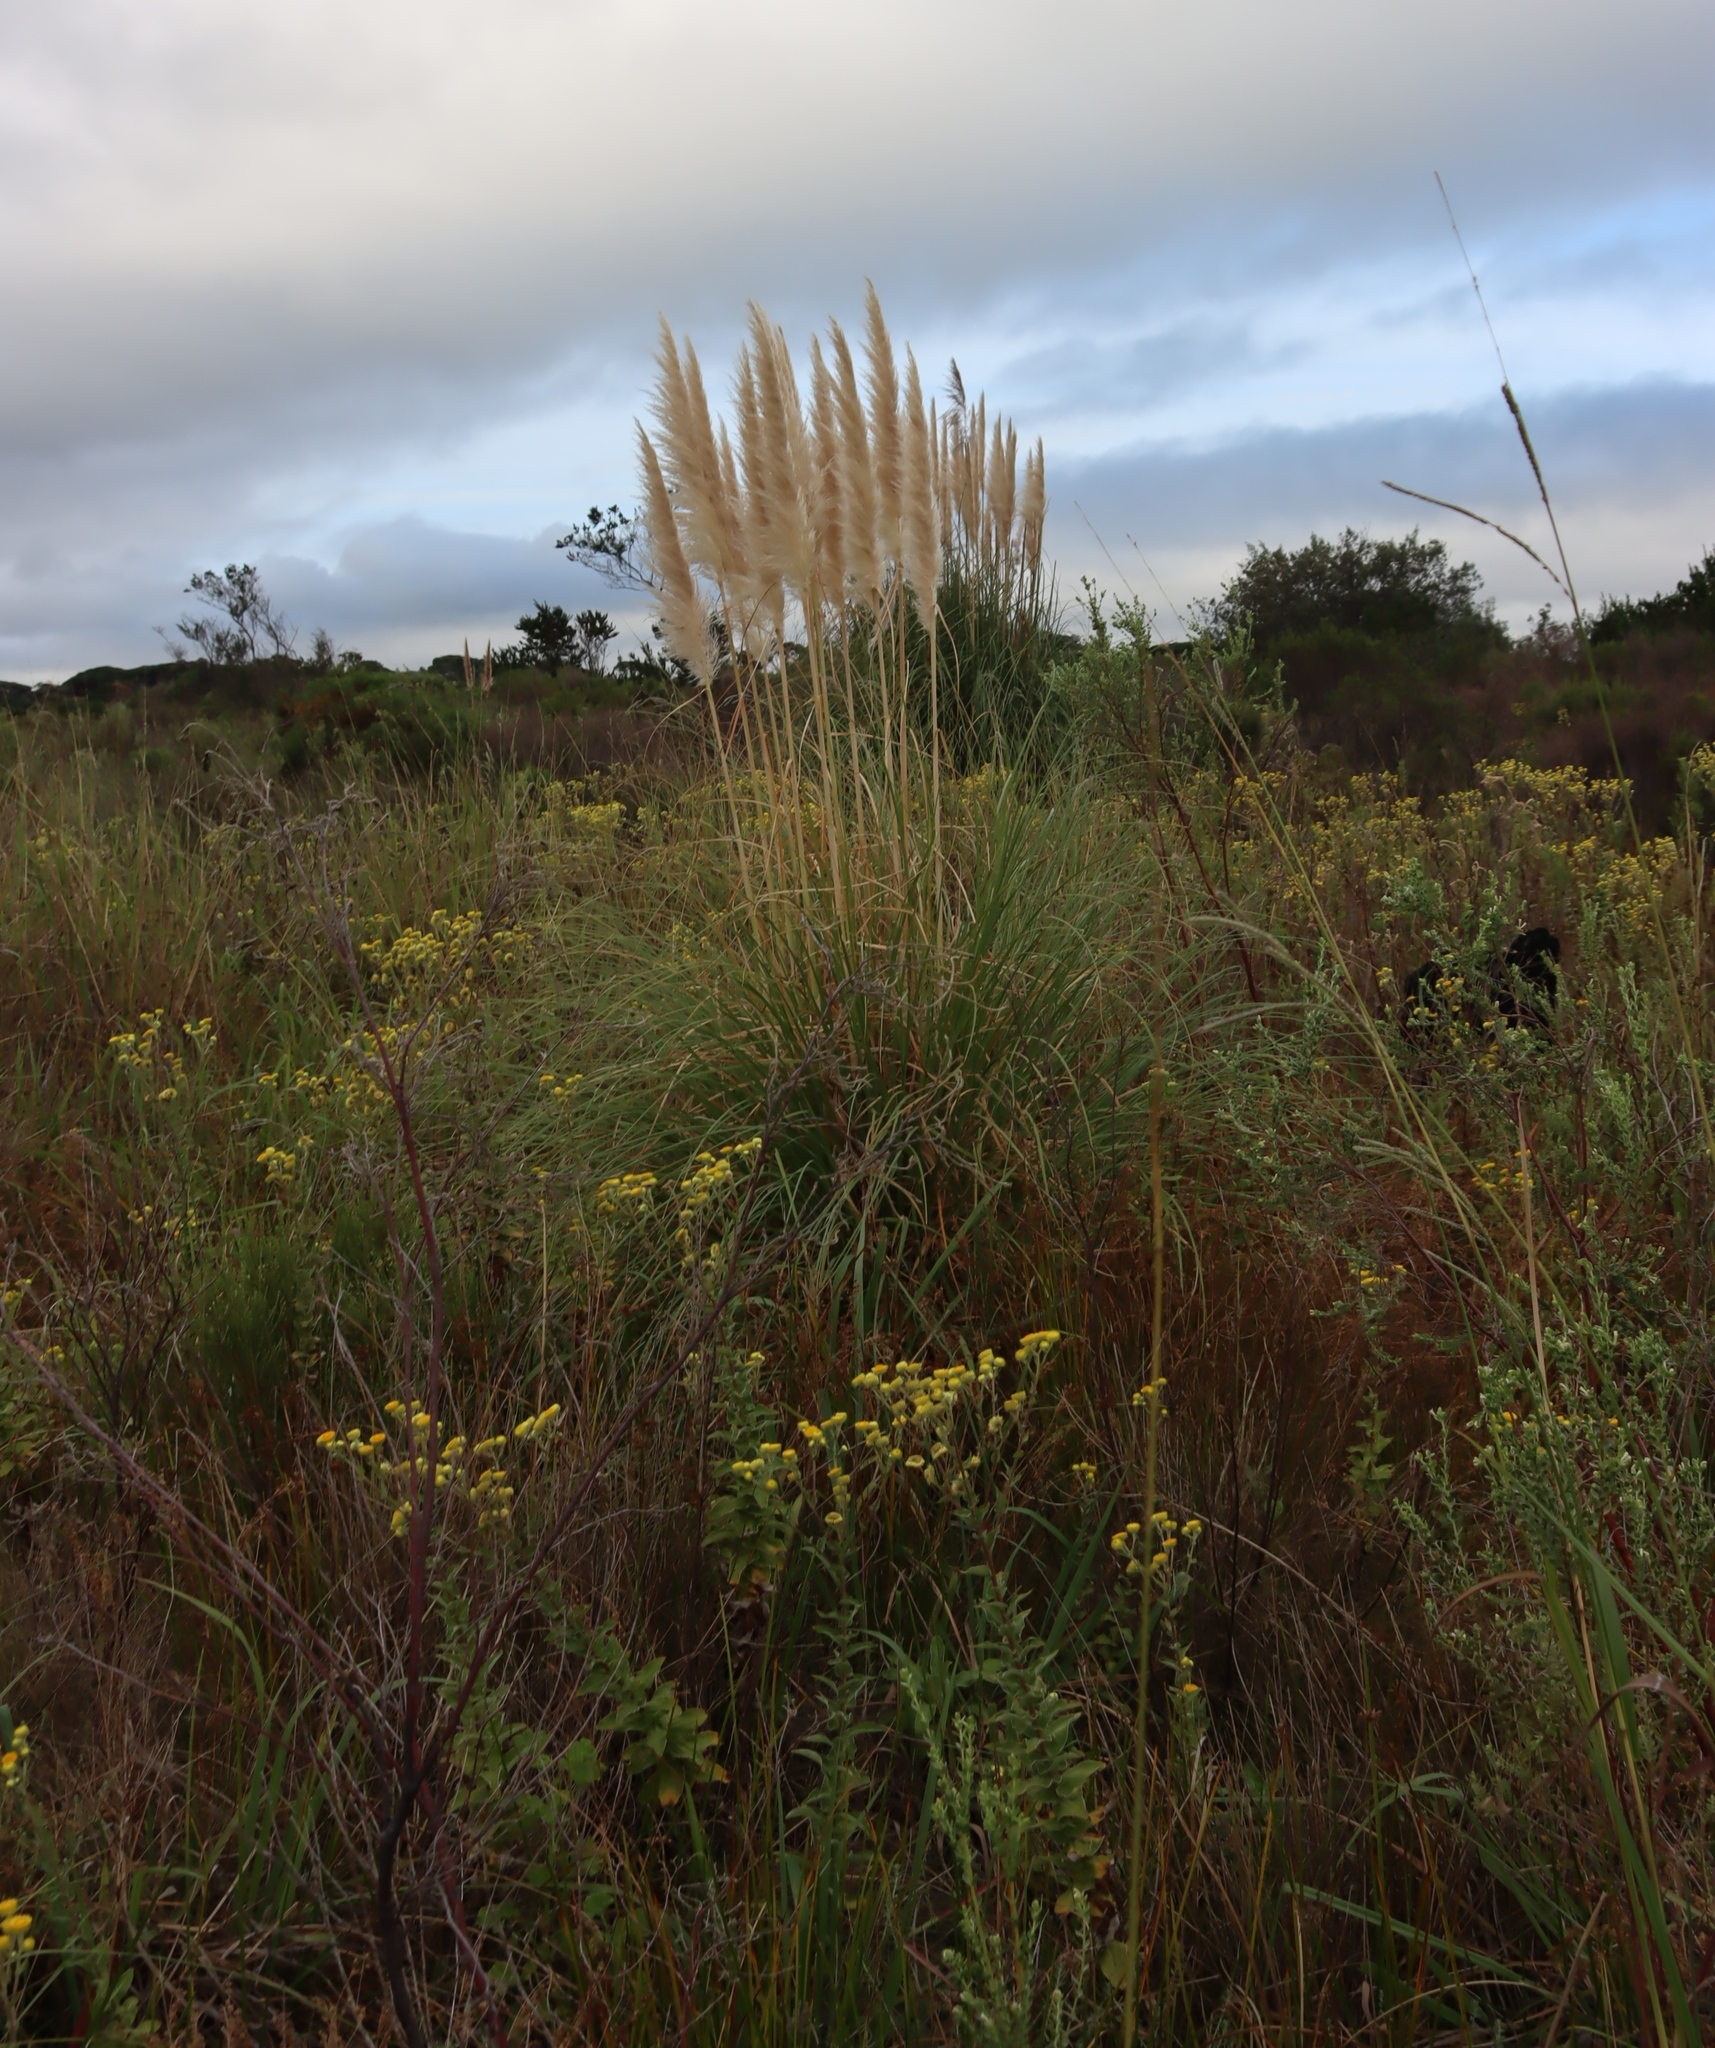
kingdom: Plantae
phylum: Tracheophyta
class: Liliopsida
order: Poales
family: Poaceae
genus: Cortaderia
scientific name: Cortaderia selloana
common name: Uruguayan pampas grass
